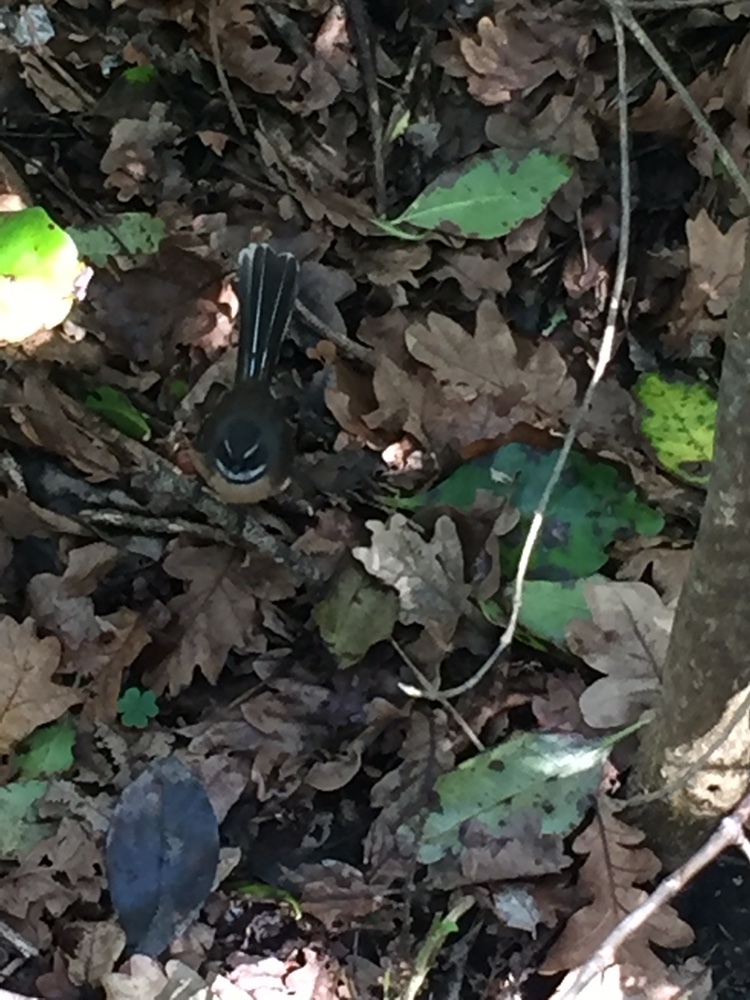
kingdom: Animalia
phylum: Chordata
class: Aves
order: Passeriformes
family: Rhipiduridae
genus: Rhipidura
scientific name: Rhipidura fuliginosa
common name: New zealand fantail
